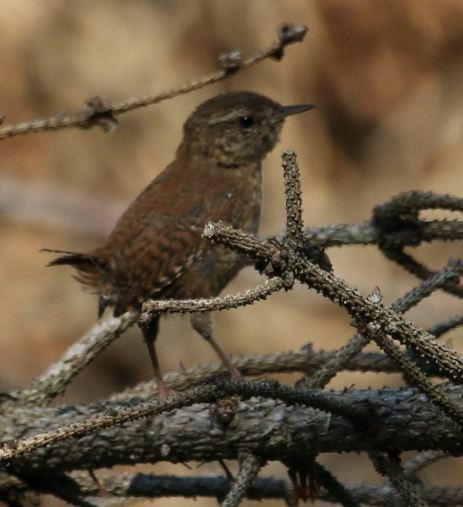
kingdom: Animalia
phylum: Chordata
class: Aves
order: Passeriformes
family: Troglodytidae
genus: Troglodytes
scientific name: Troglodytes troglodytes
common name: Eurasian wren
